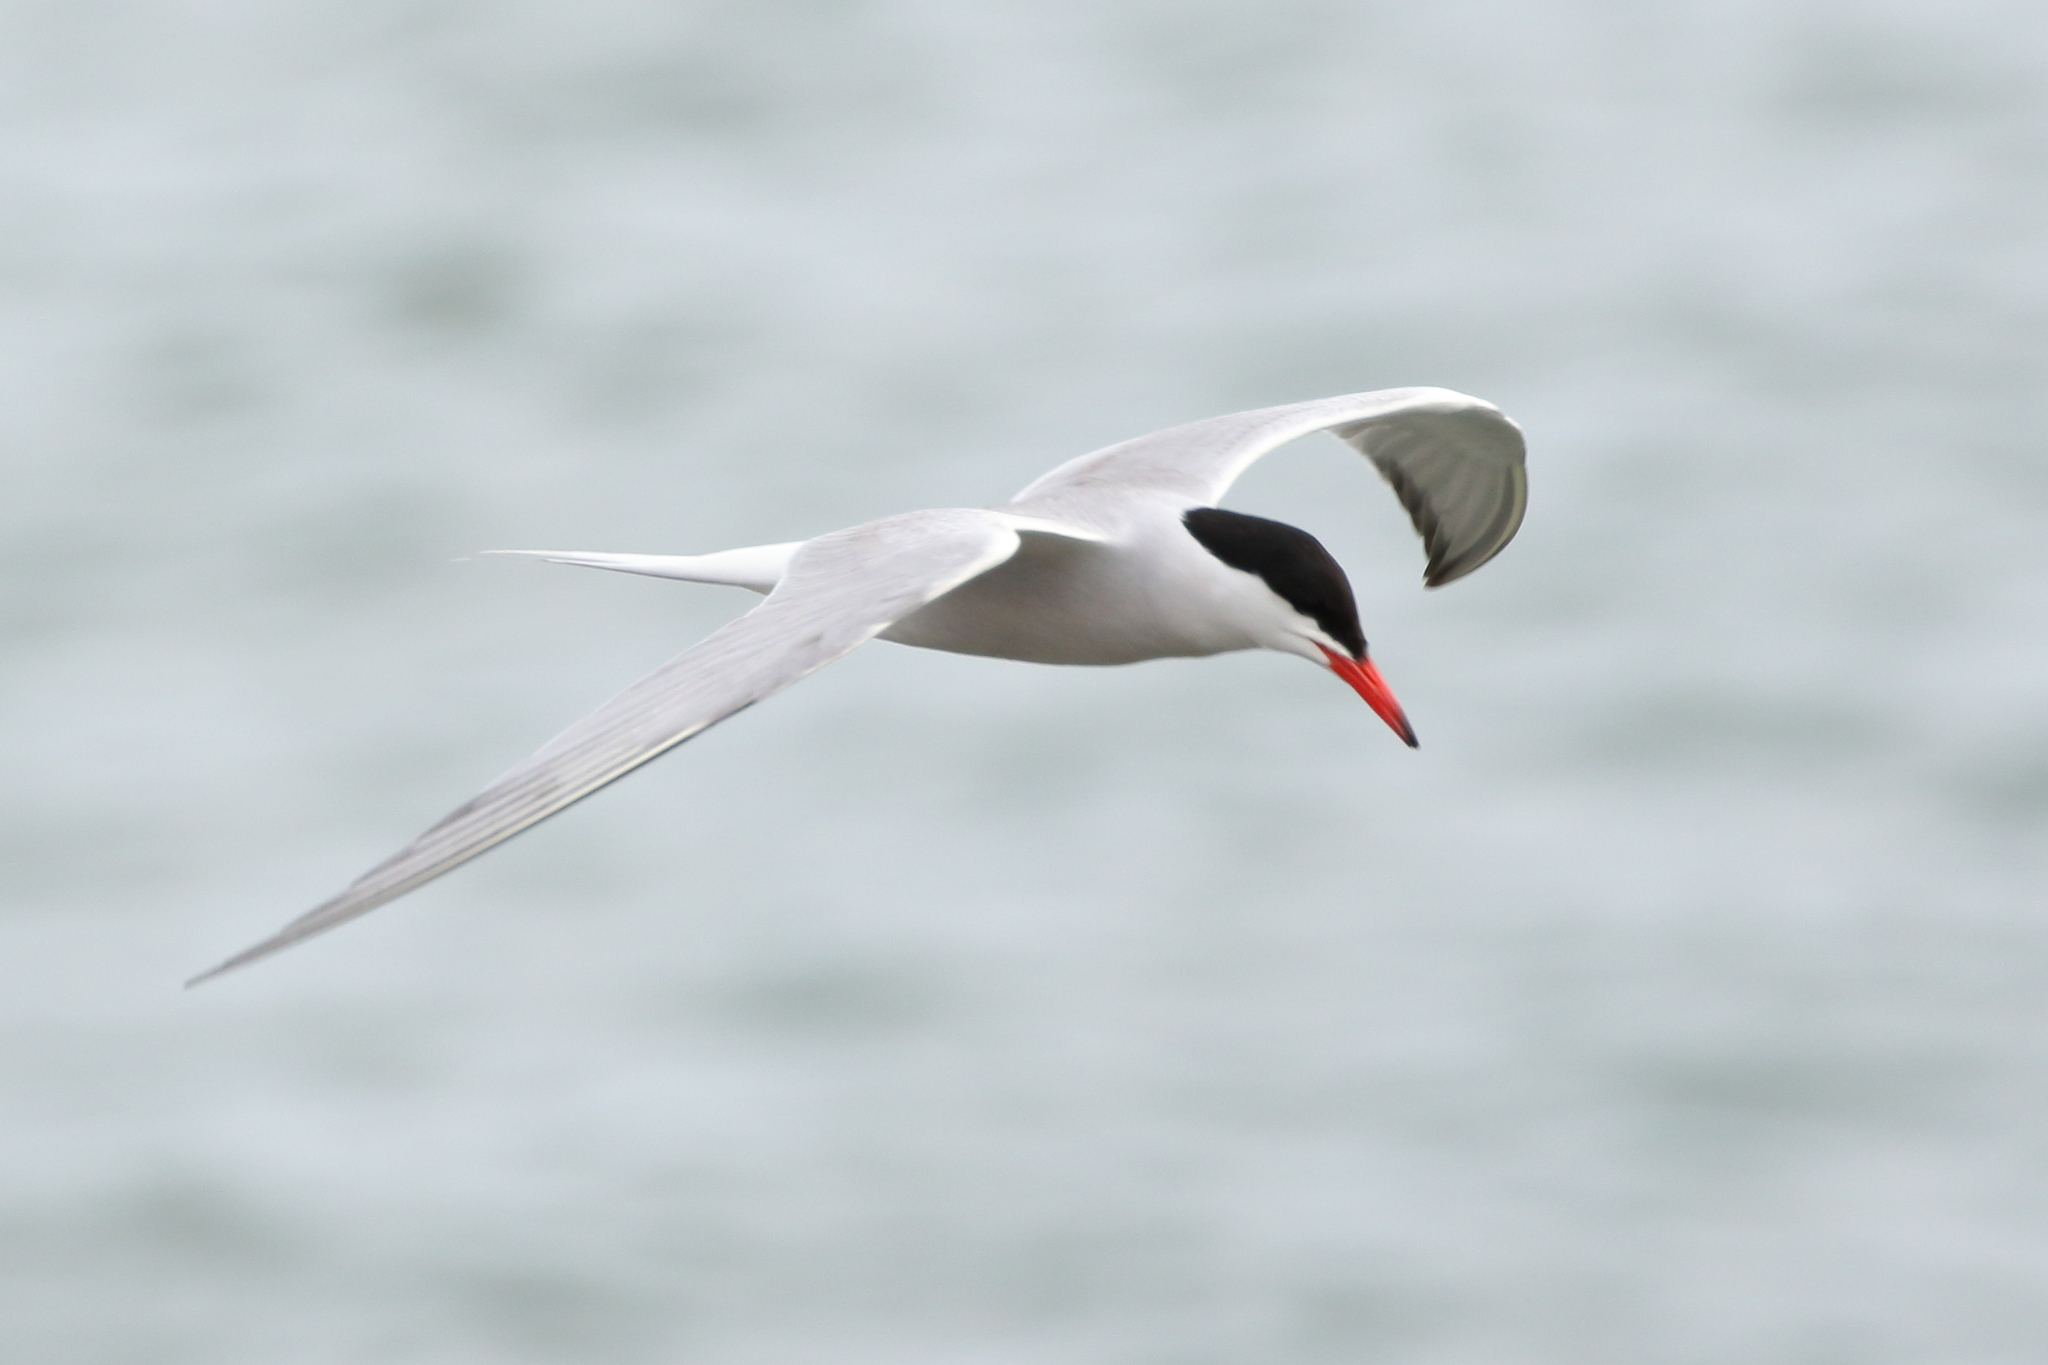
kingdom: Animalia
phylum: Chordata
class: Aves
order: Charadriiformes
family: Laridae
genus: Sterna
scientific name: Sterna hirundo
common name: Common tern
